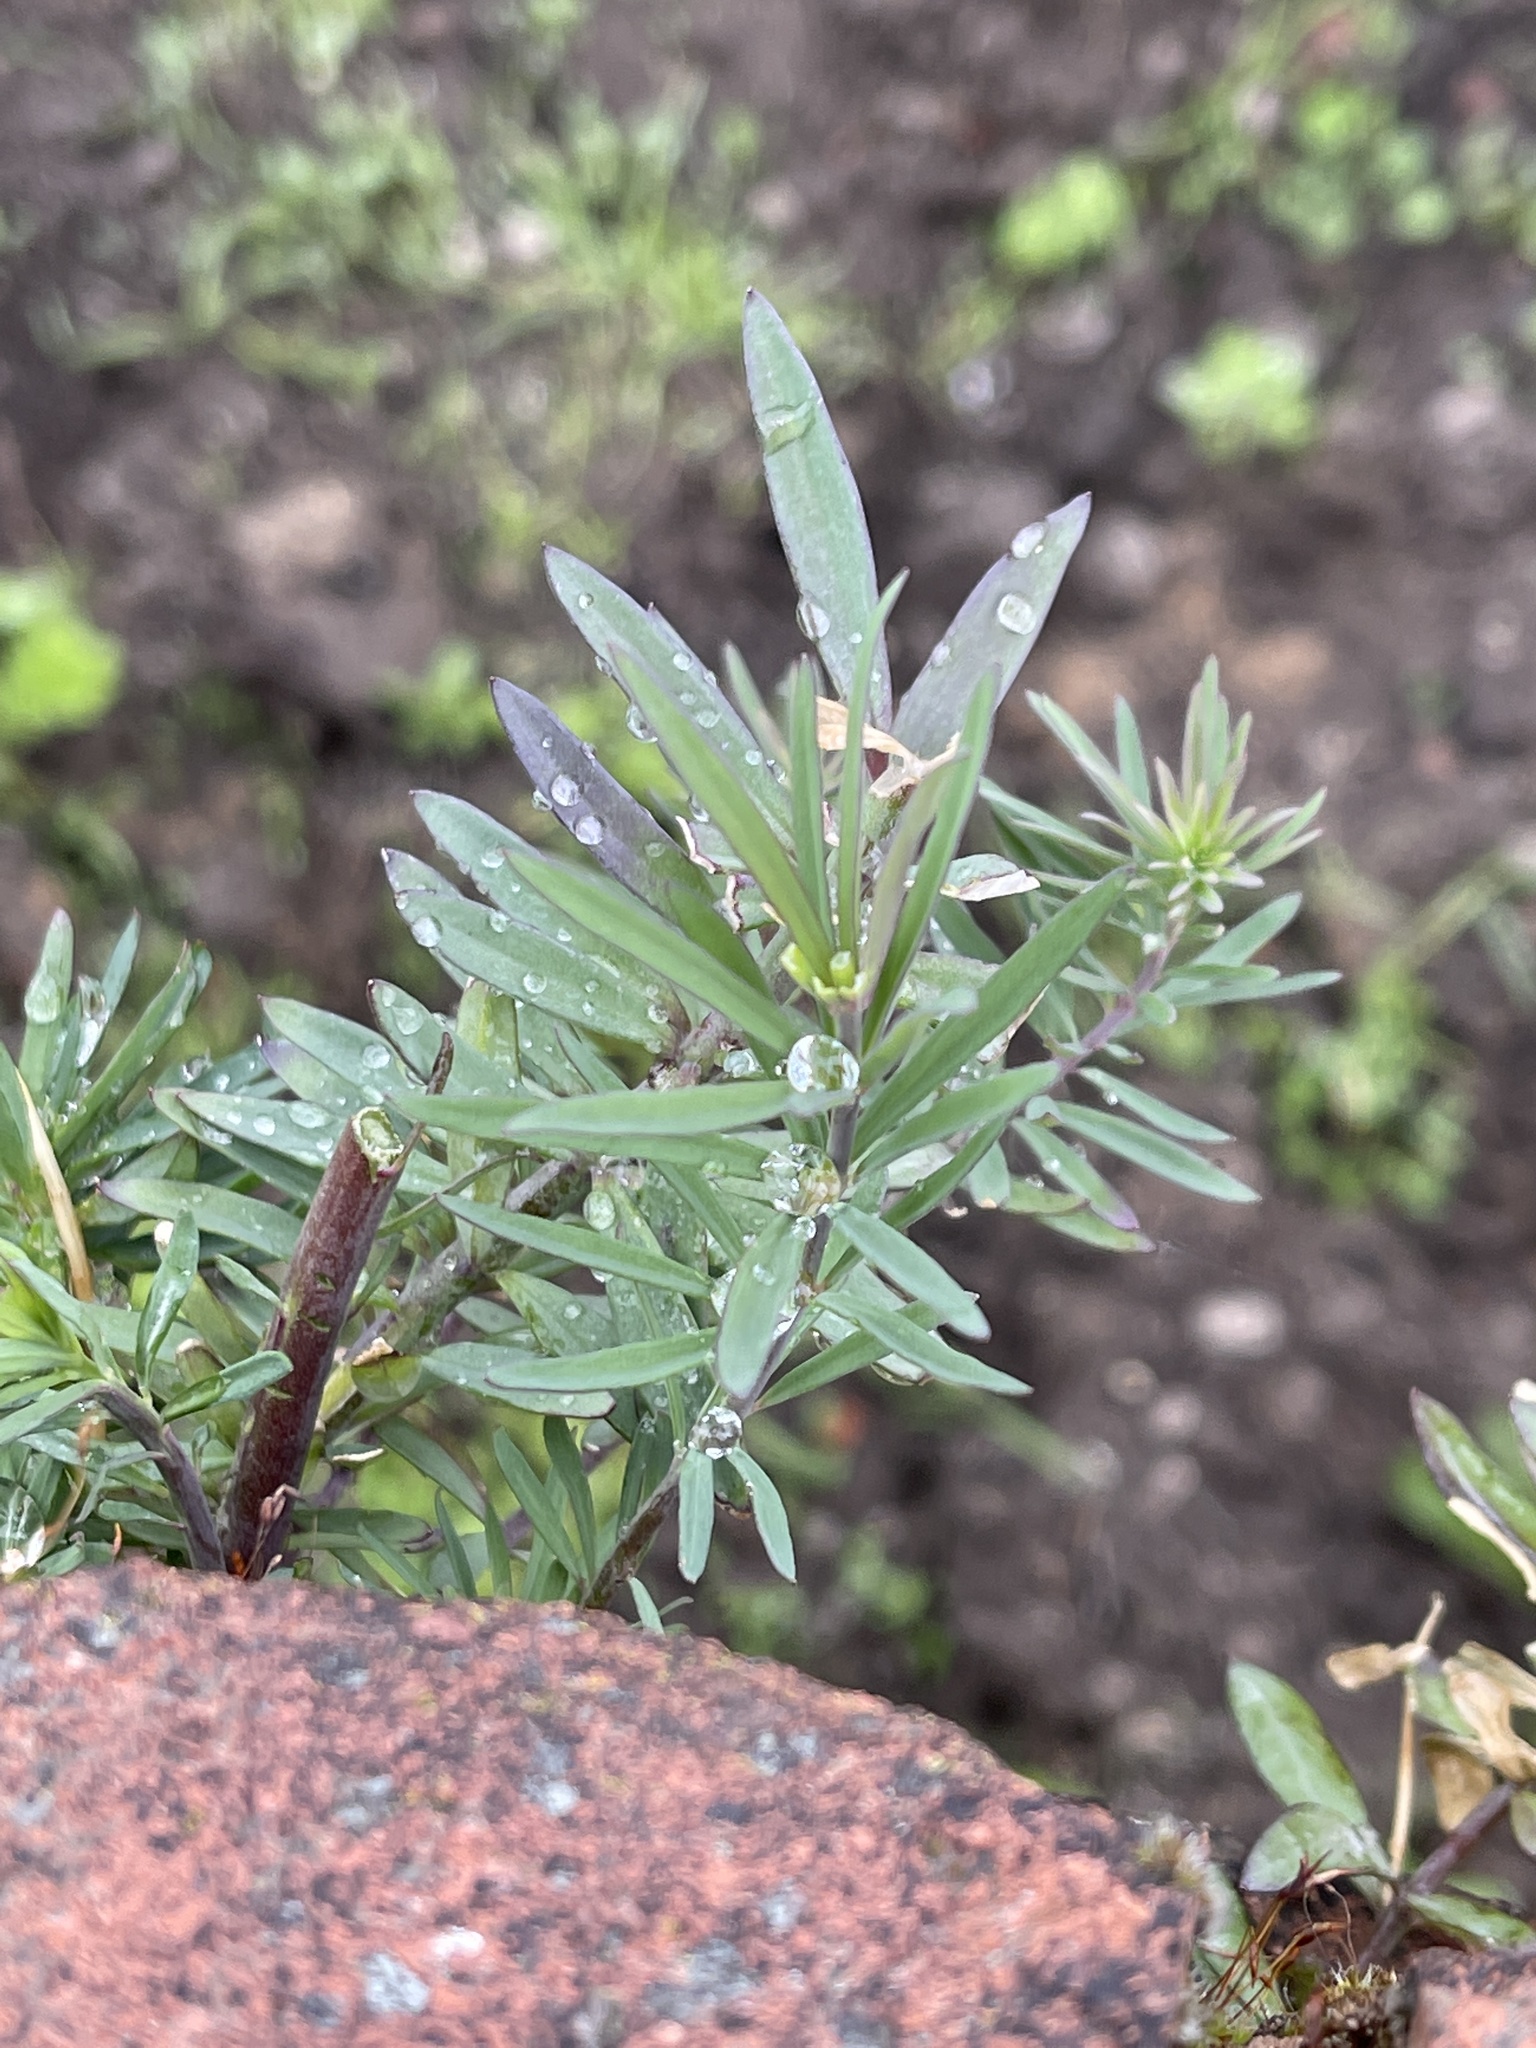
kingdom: Plantae
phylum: Tracheophyta
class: Magnoliopsida
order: Lamiales
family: Plantaginaceae
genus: Linaria
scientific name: Linaria purpurea
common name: Purple toadflax
